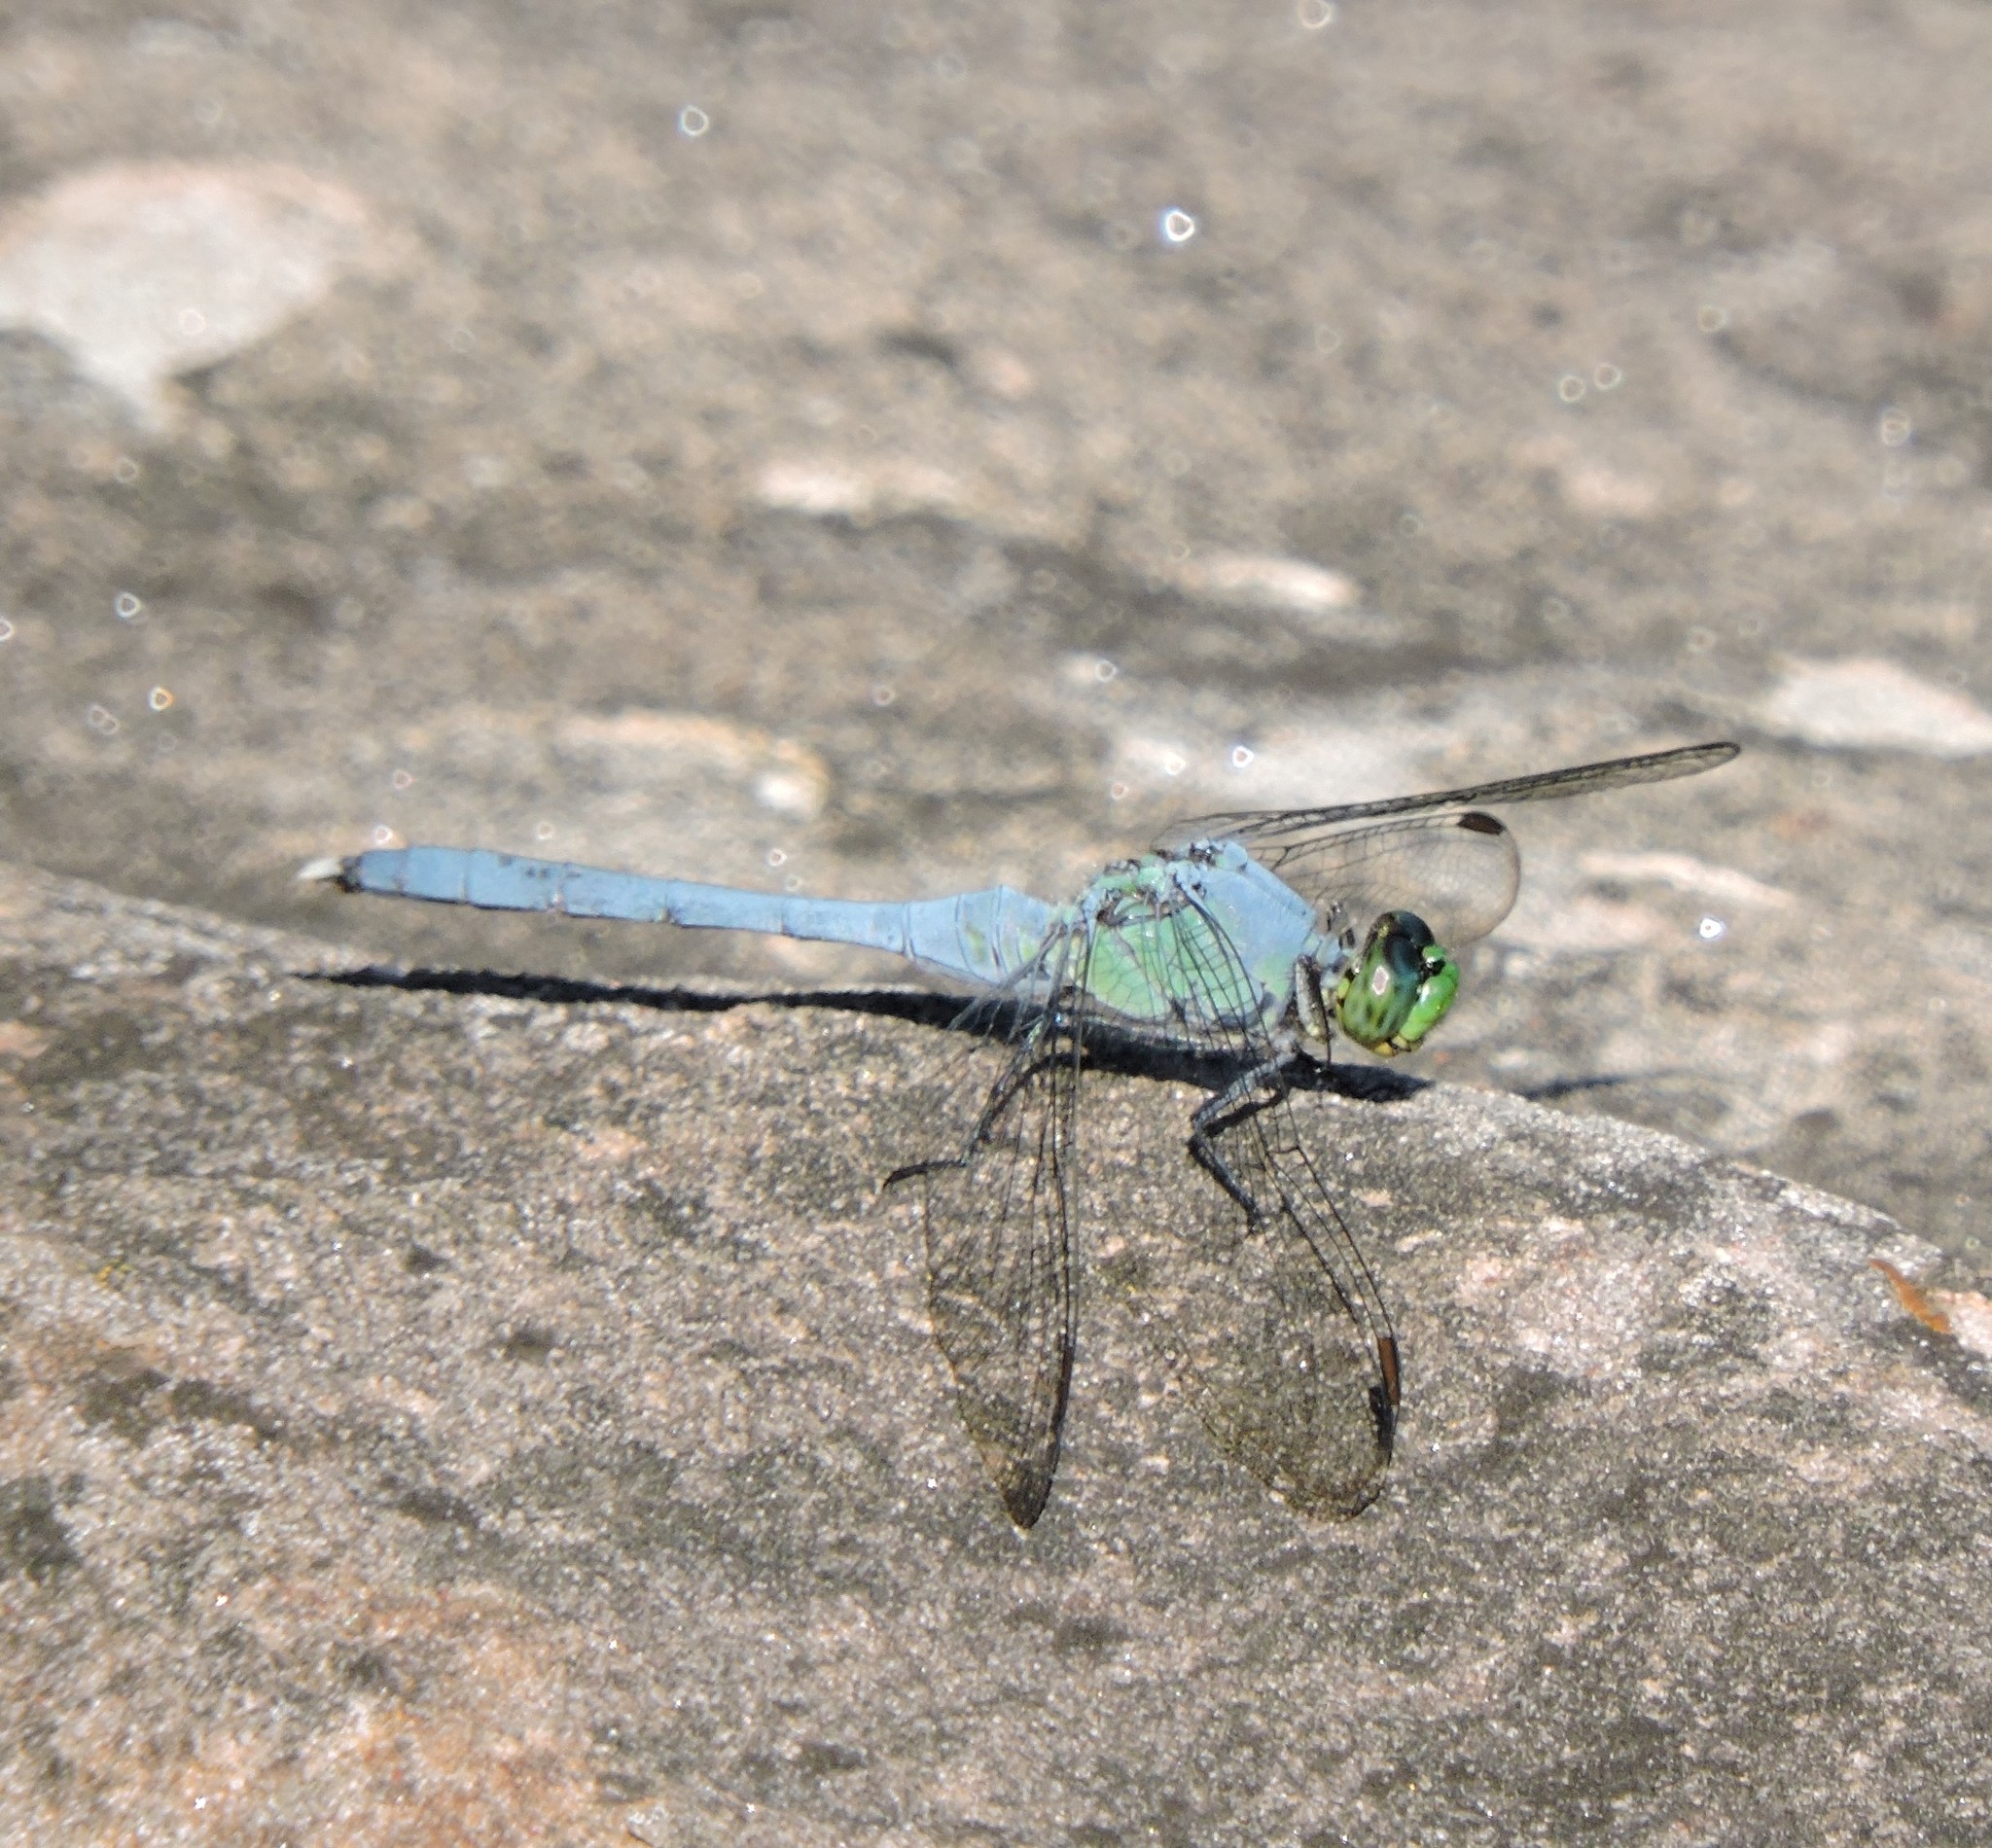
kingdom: Animalia
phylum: Arthropoda
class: Insecta
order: Odonata
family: Libellulidae
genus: Erythemis
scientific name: Erythemis simplicicollis
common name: Eastern pondhawk
